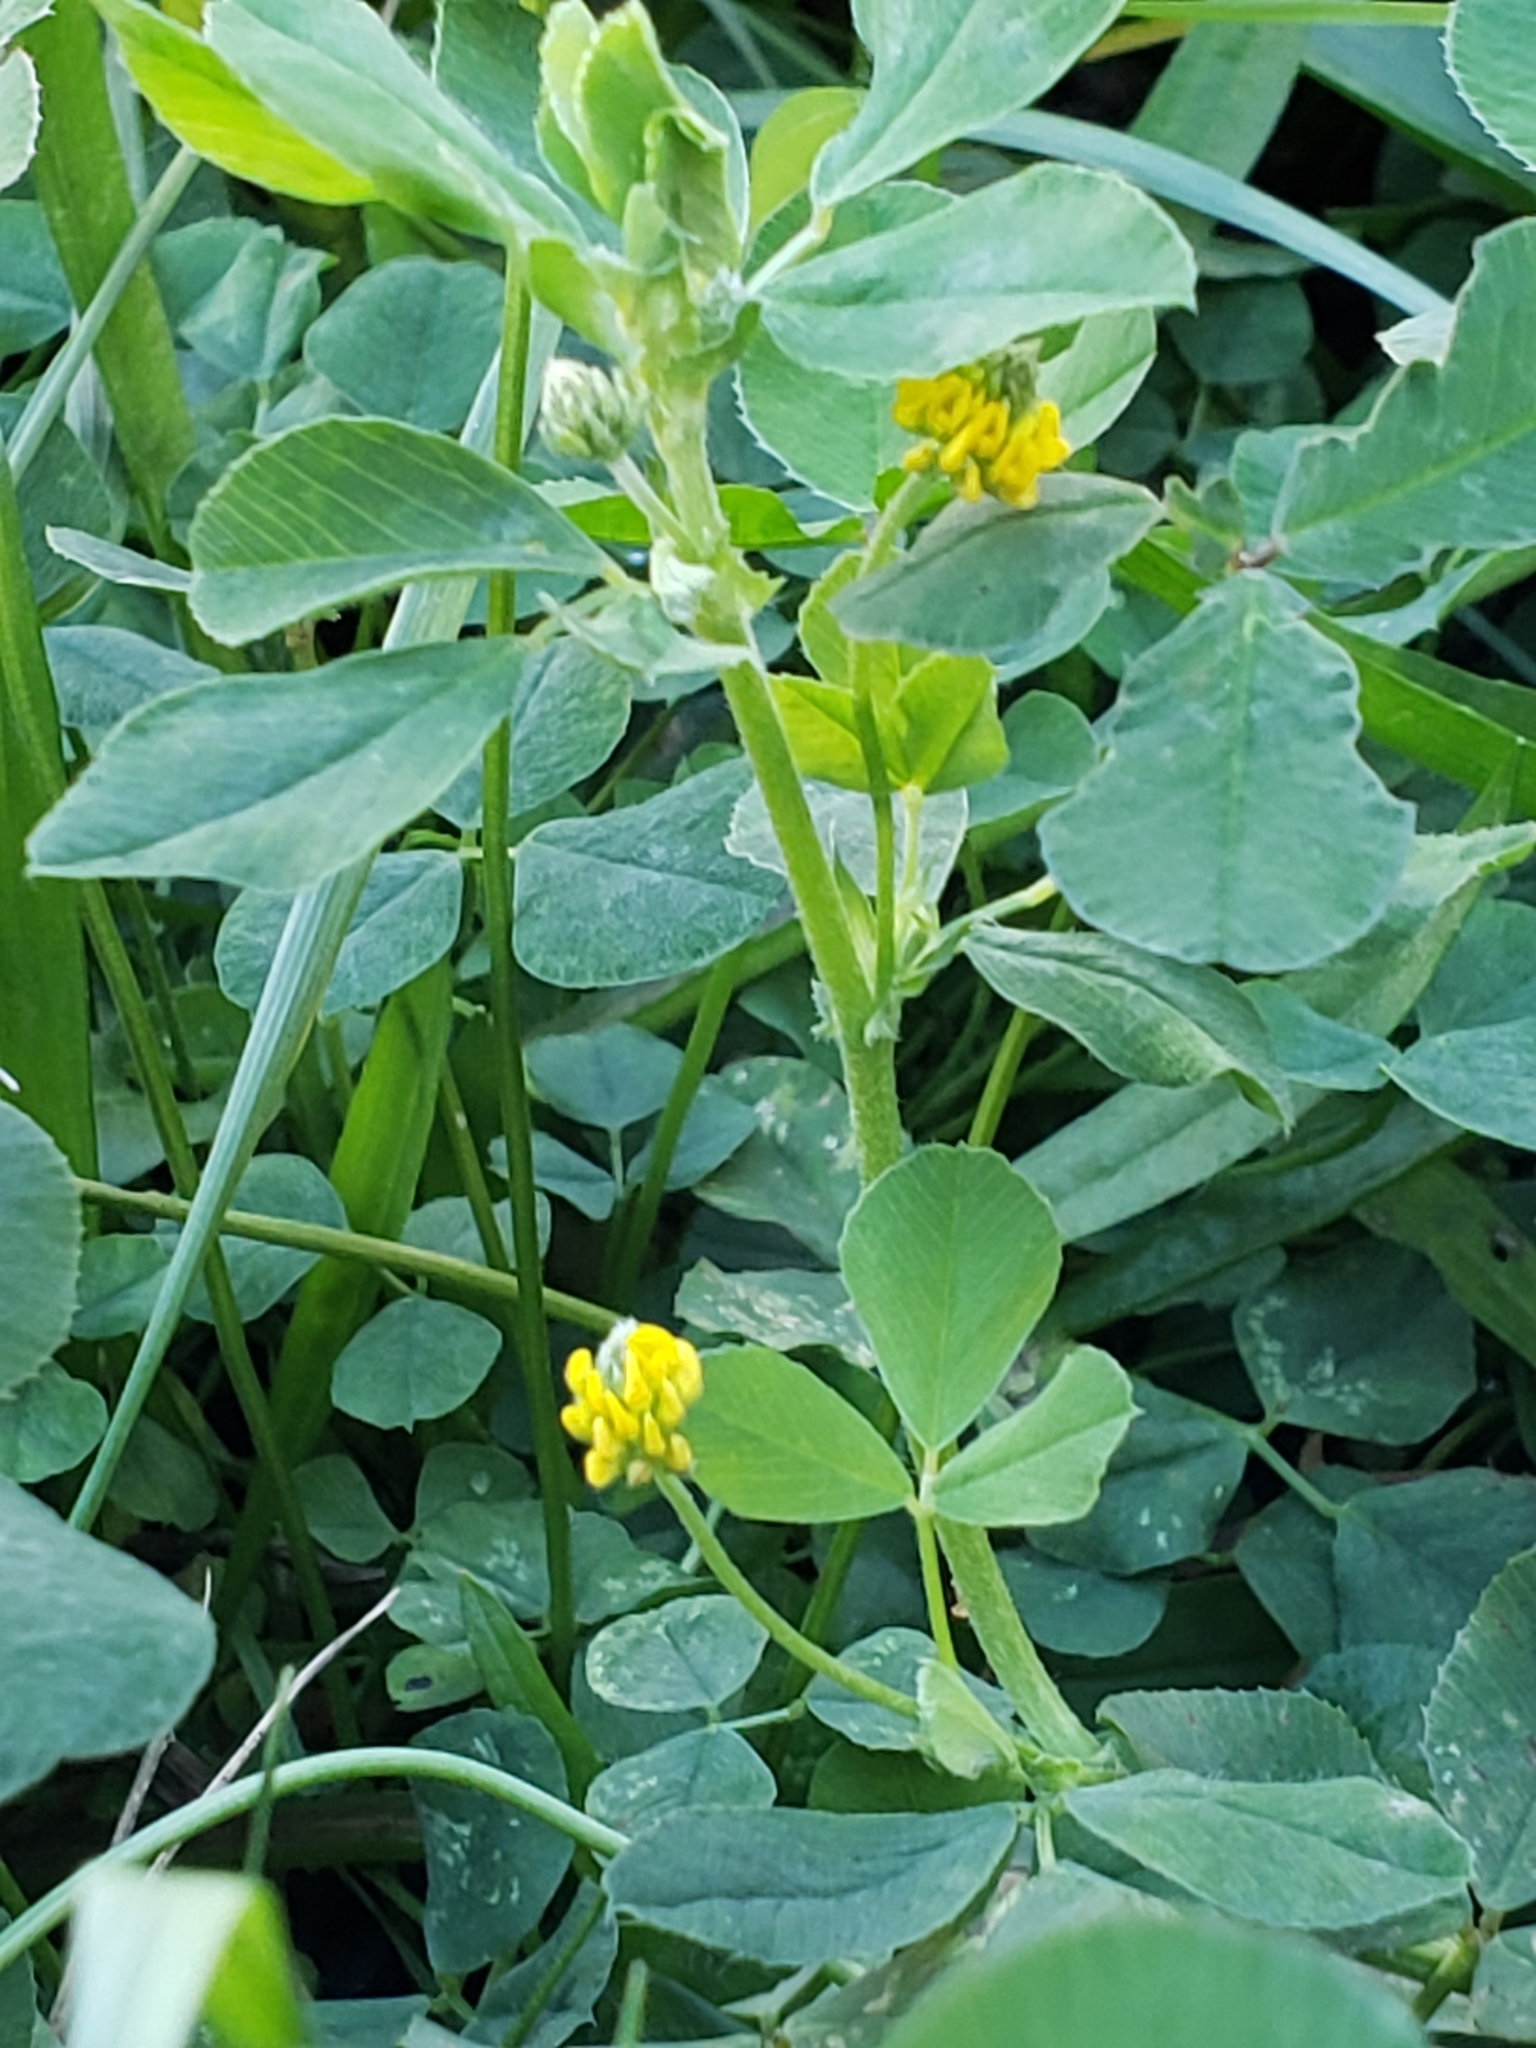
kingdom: Plantae
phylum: Tracheophyta
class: Magnoliopsida
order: Fabales
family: Fabaceae
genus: Medicago
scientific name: Medicago lupulina
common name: Black medick
